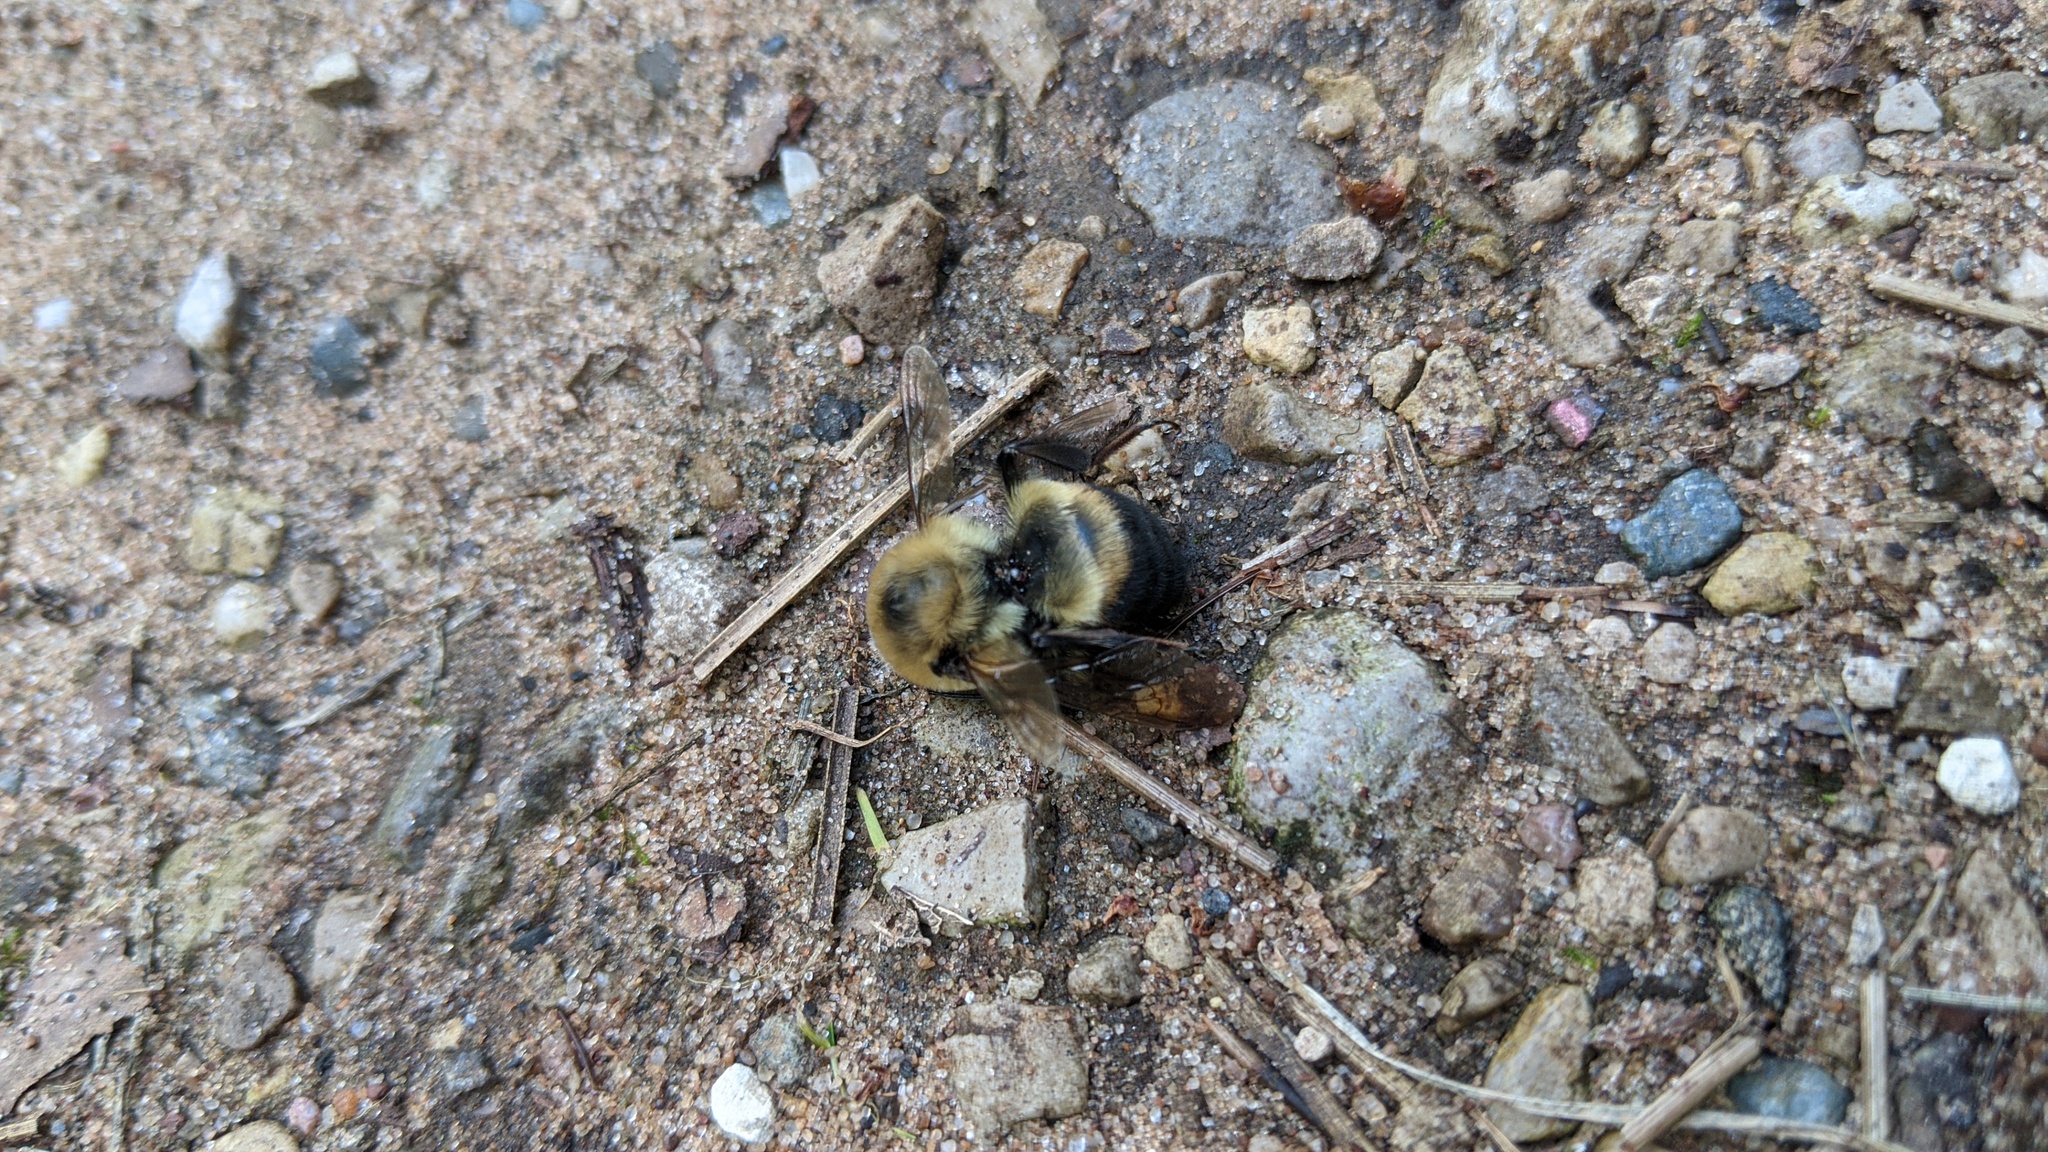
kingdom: Animalia
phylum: Arthropoda
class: Insecta
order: Hymenoptera
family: Apidae
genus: Bombus
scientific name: Bombus griseocollis
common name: Brown-belted bumble bee
